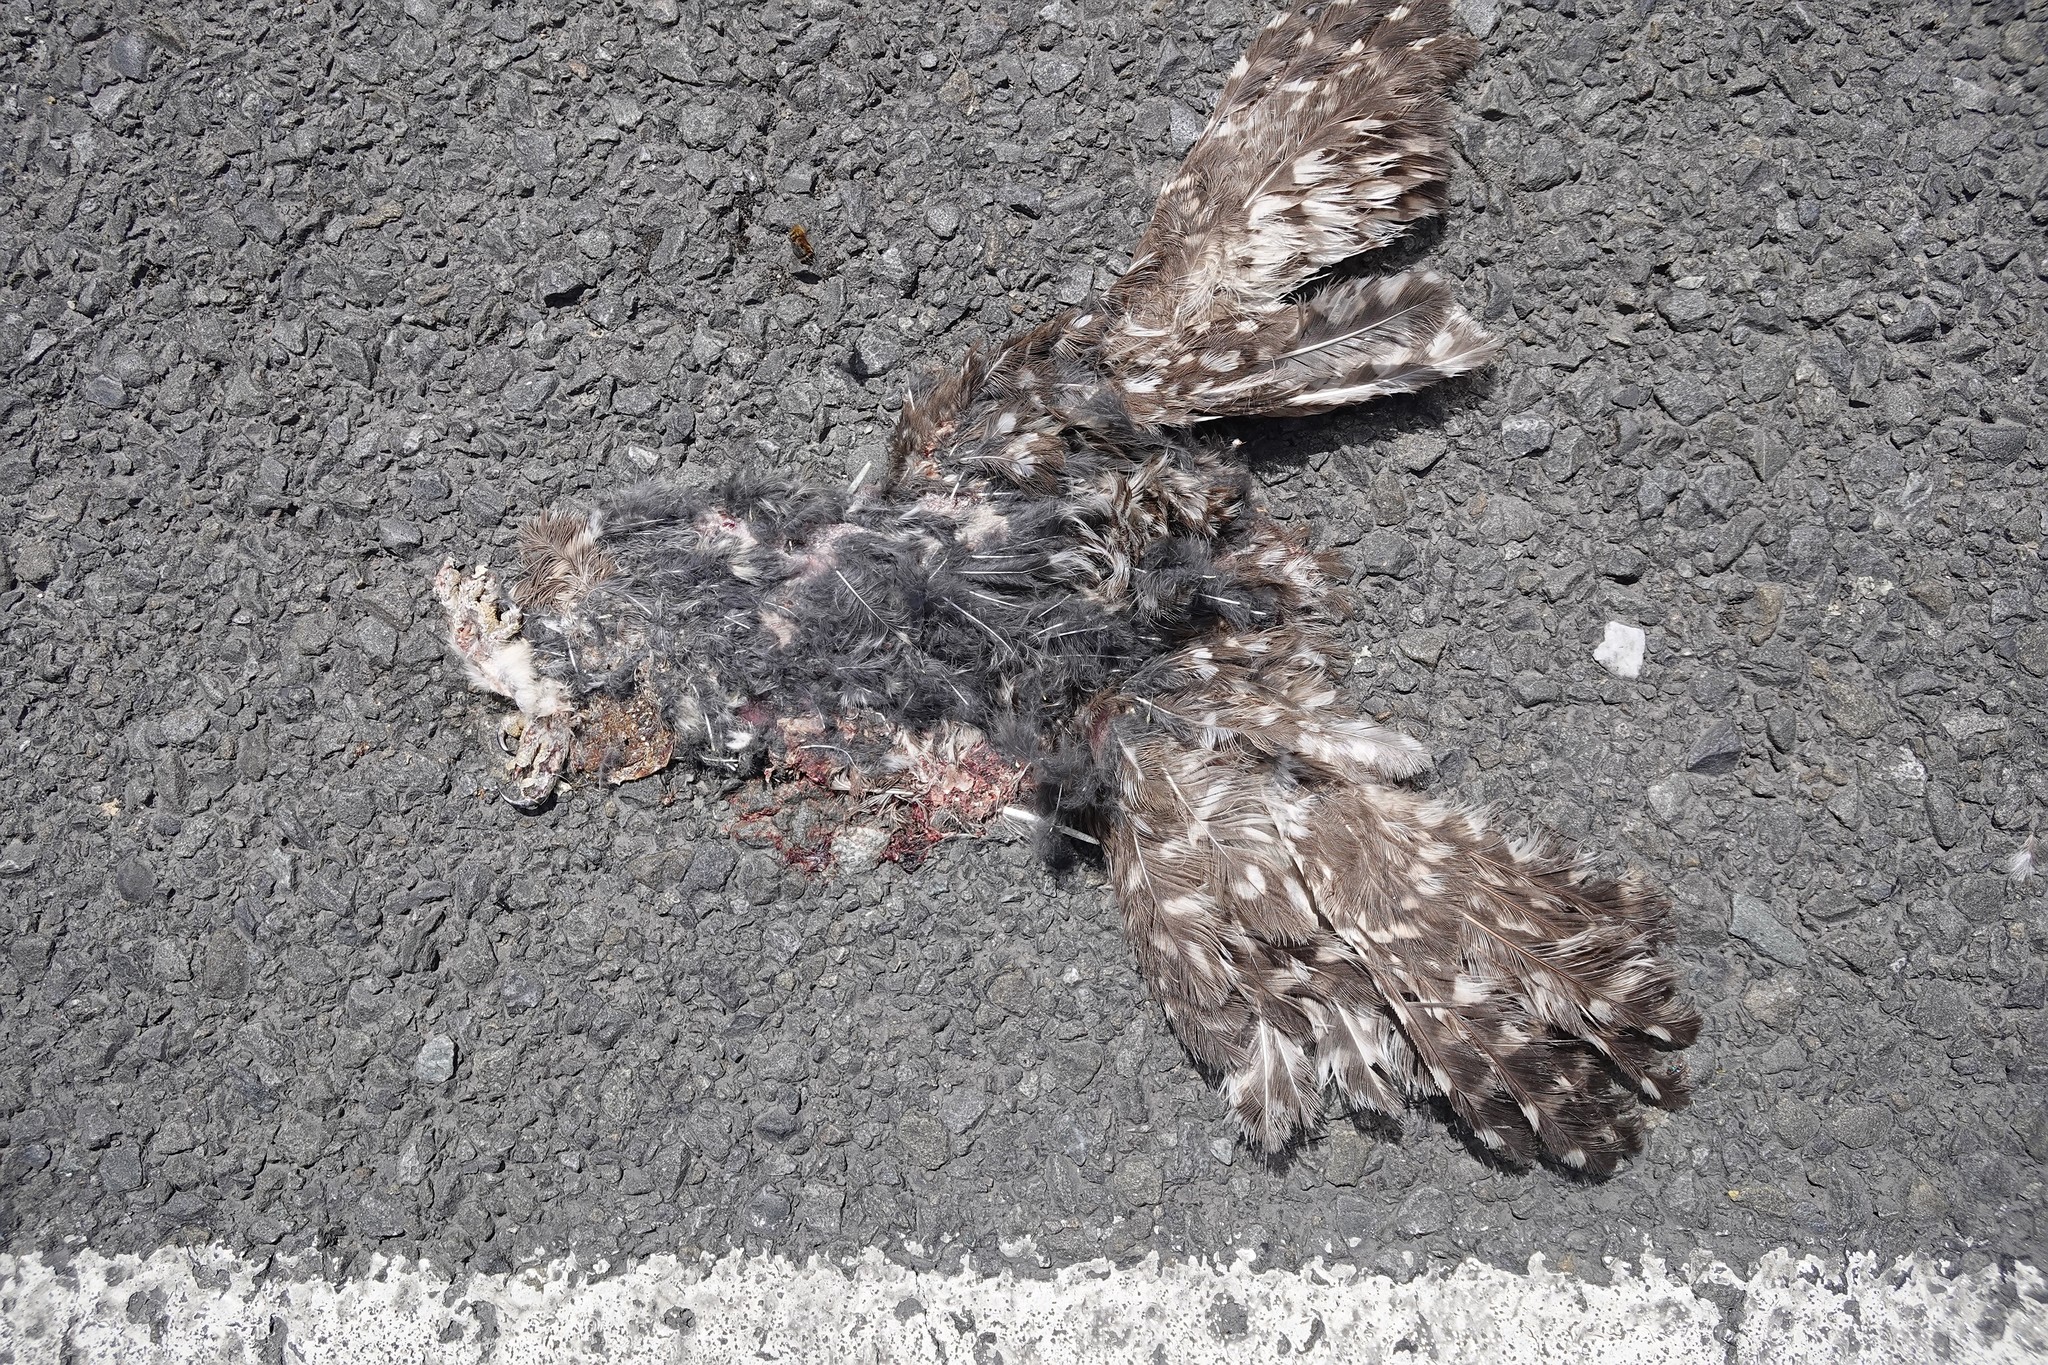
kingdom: Animalia
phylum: Chordata
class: Aves
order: Strigiformes
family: Strigidae
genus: Athene
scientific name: Athene noctua
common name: Little owl
